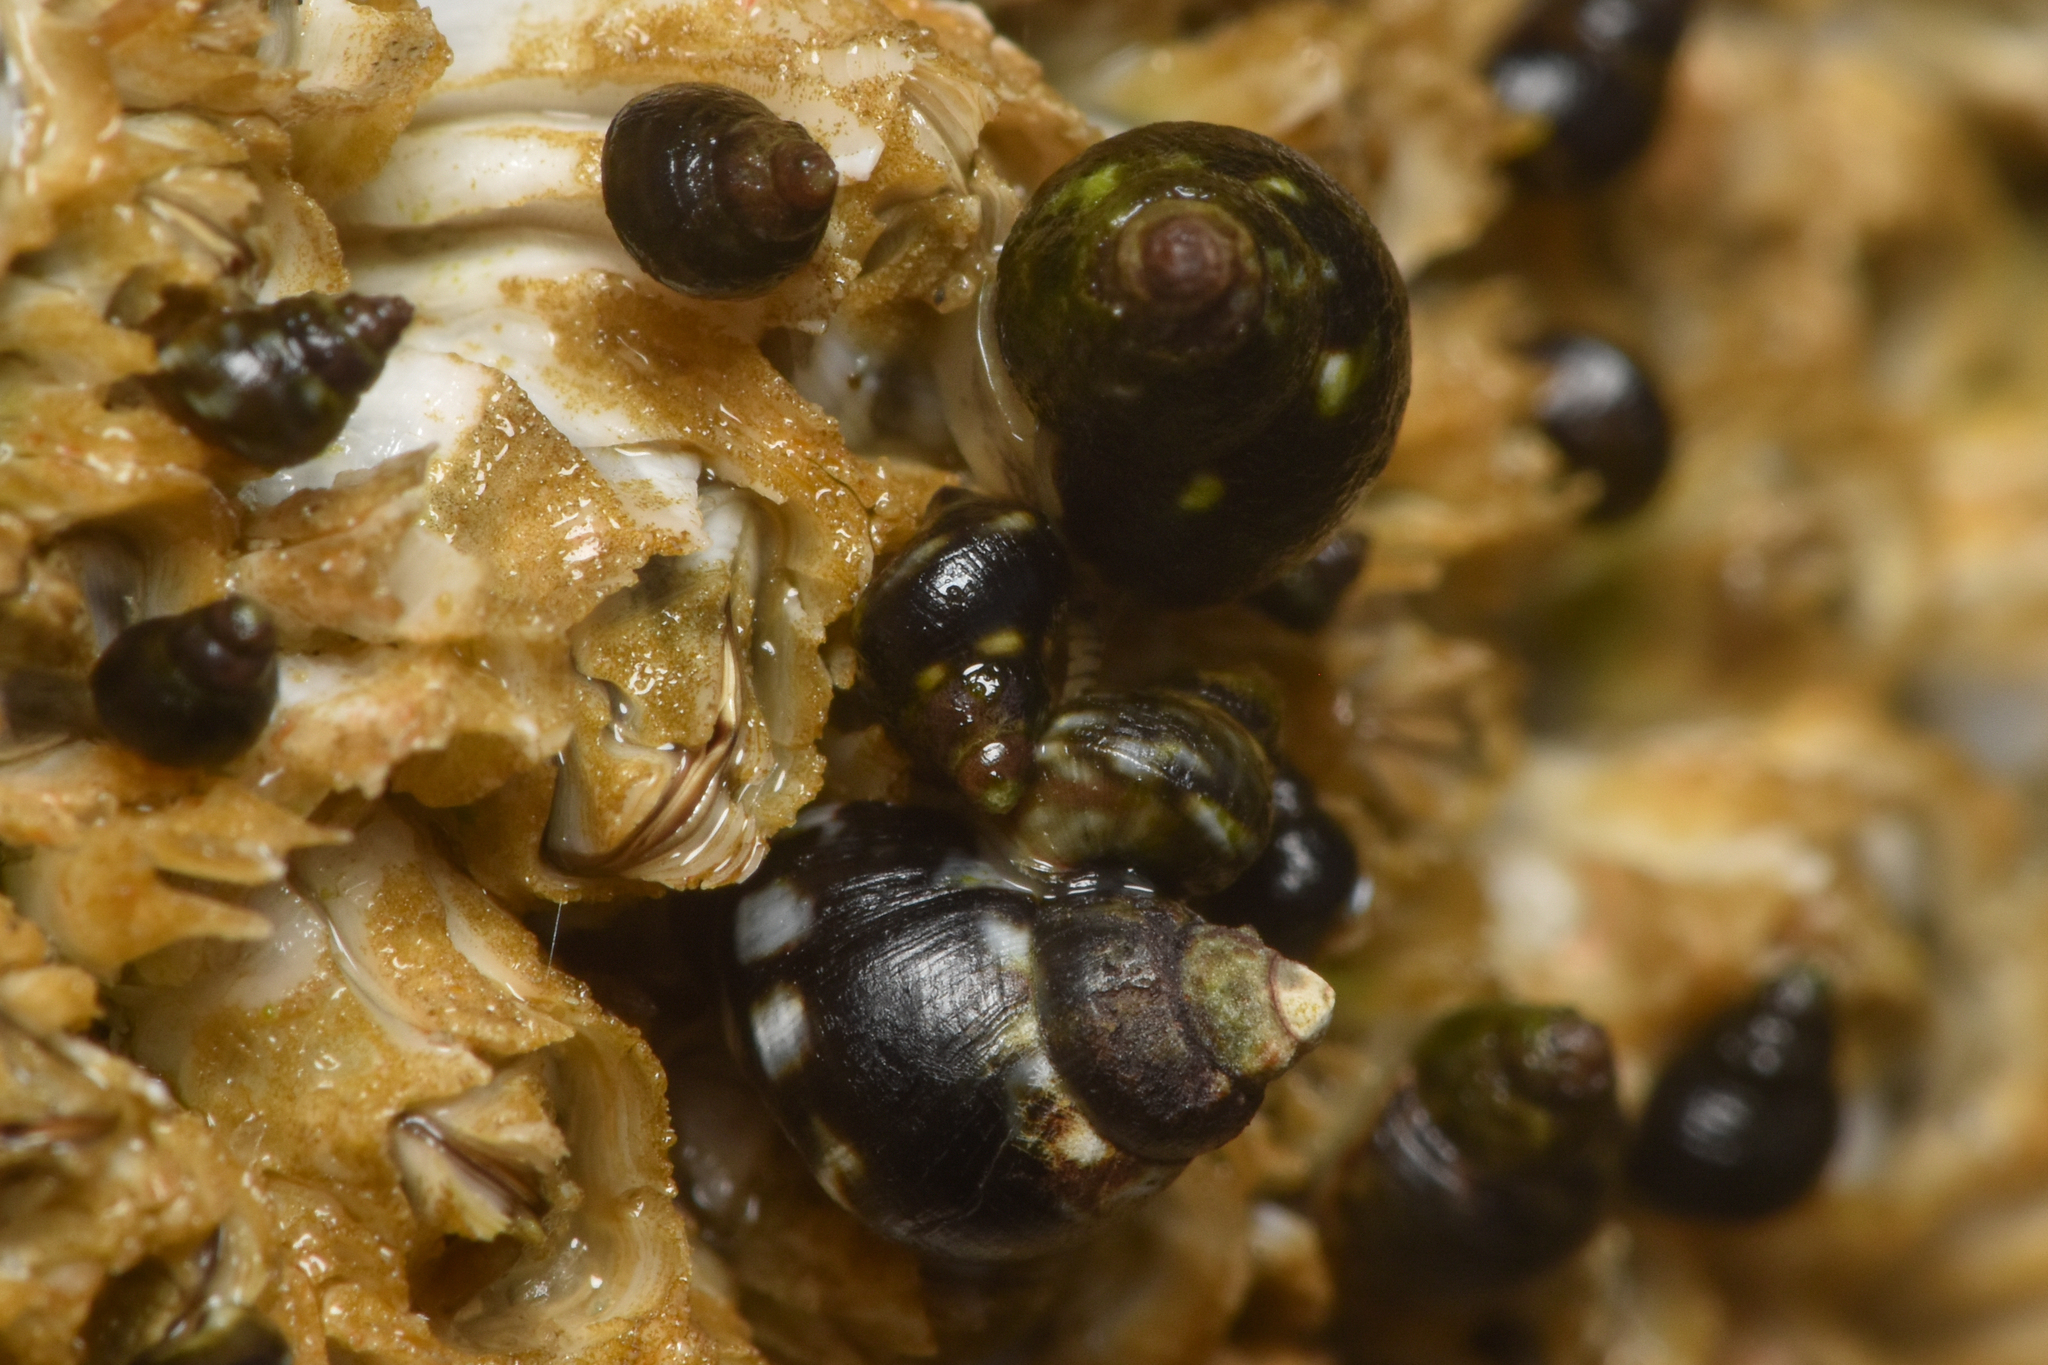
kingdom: Animalia
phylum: Mollusca
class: Gastropoda
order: Littorinimorpha
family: Littorinidae
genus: Littorina
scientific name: Littorina scutulata
